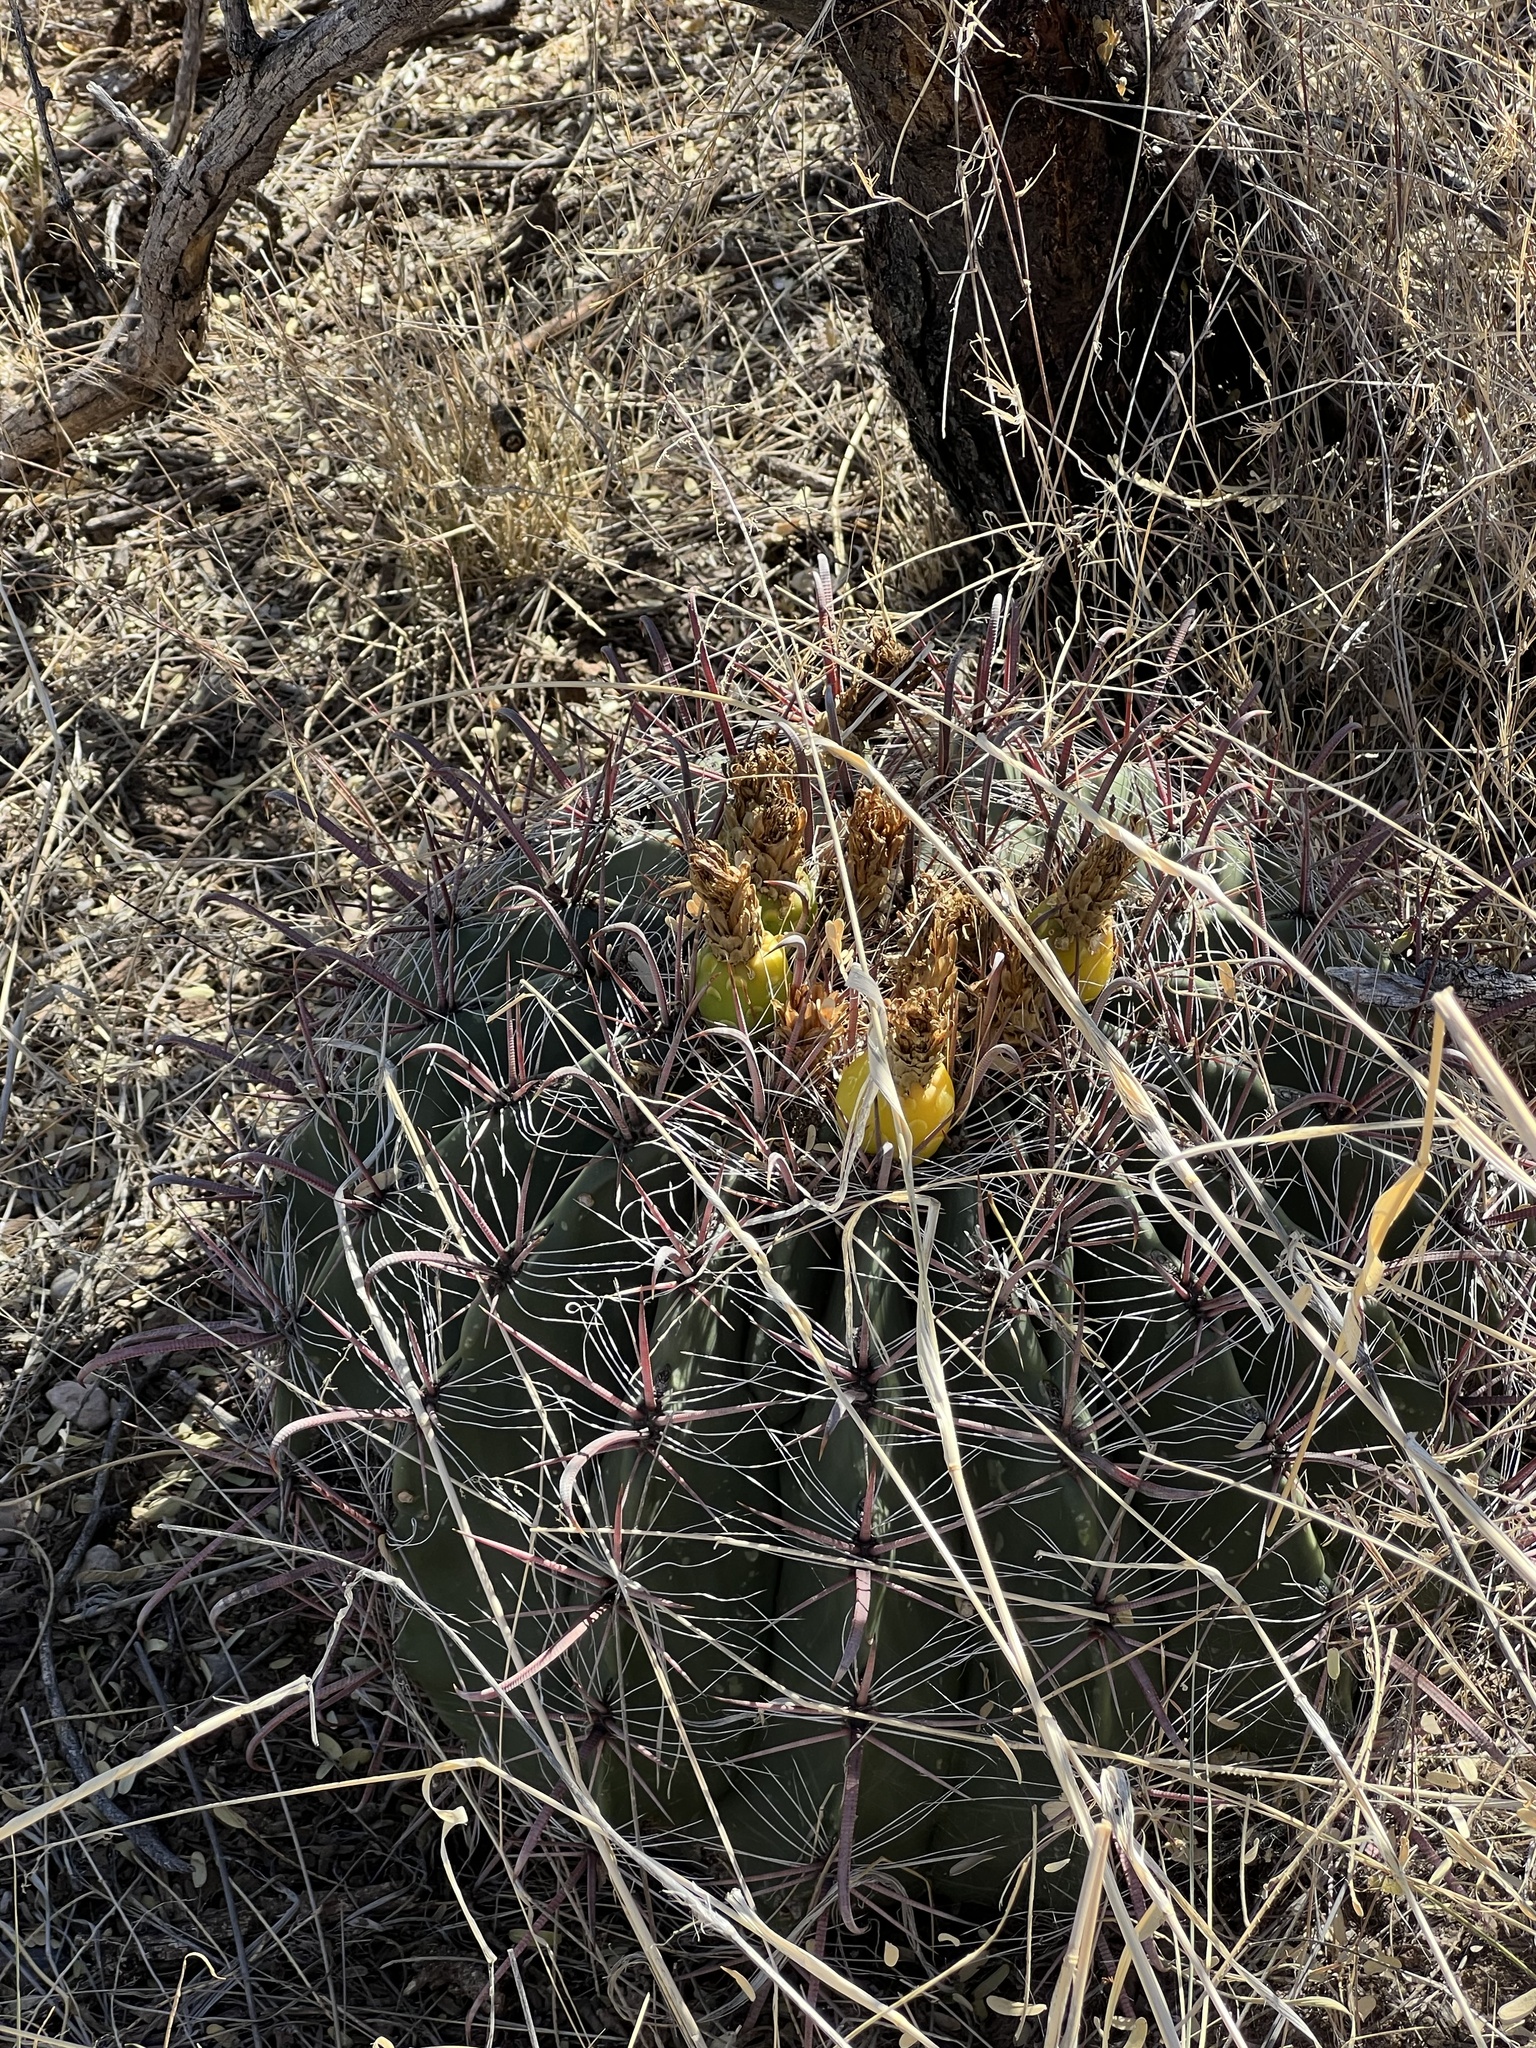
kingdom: Plantae
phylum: Tracheophyta
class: Magnoliopsida
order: Caryophyllales
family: Cactaceae
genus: Ferocactus
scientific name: Ferocactus wislizeni
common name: Candy barrel cactus
